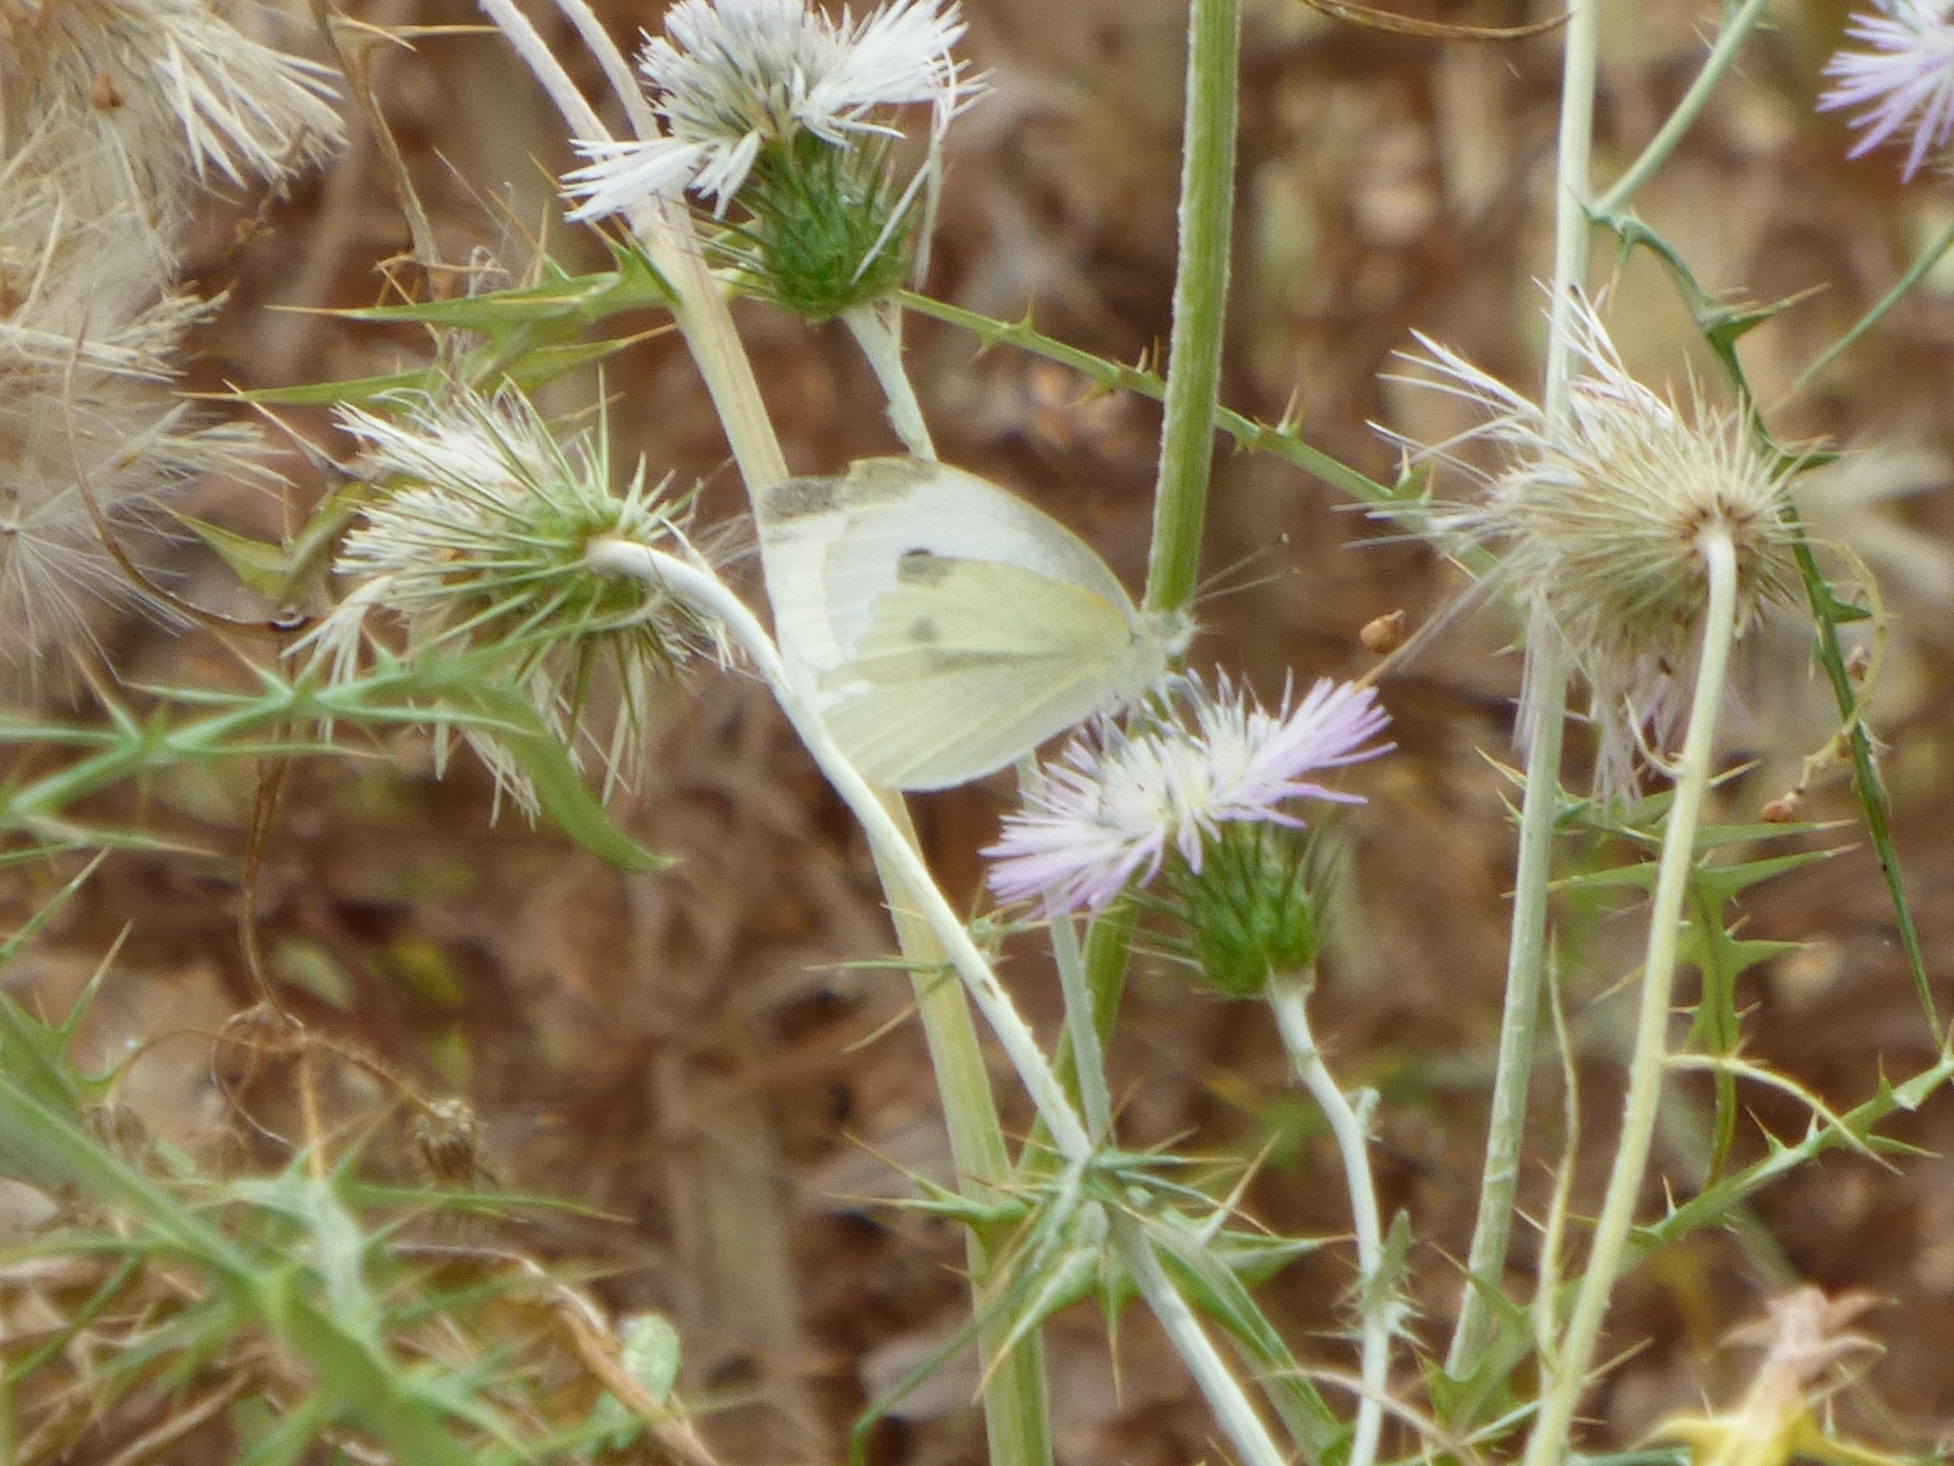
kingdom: Animalia
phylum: Arthropoda
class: Insecta
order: Lepidoptera
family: Pieridae
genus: Pieris
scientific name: Pieris rapae
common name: Small white
